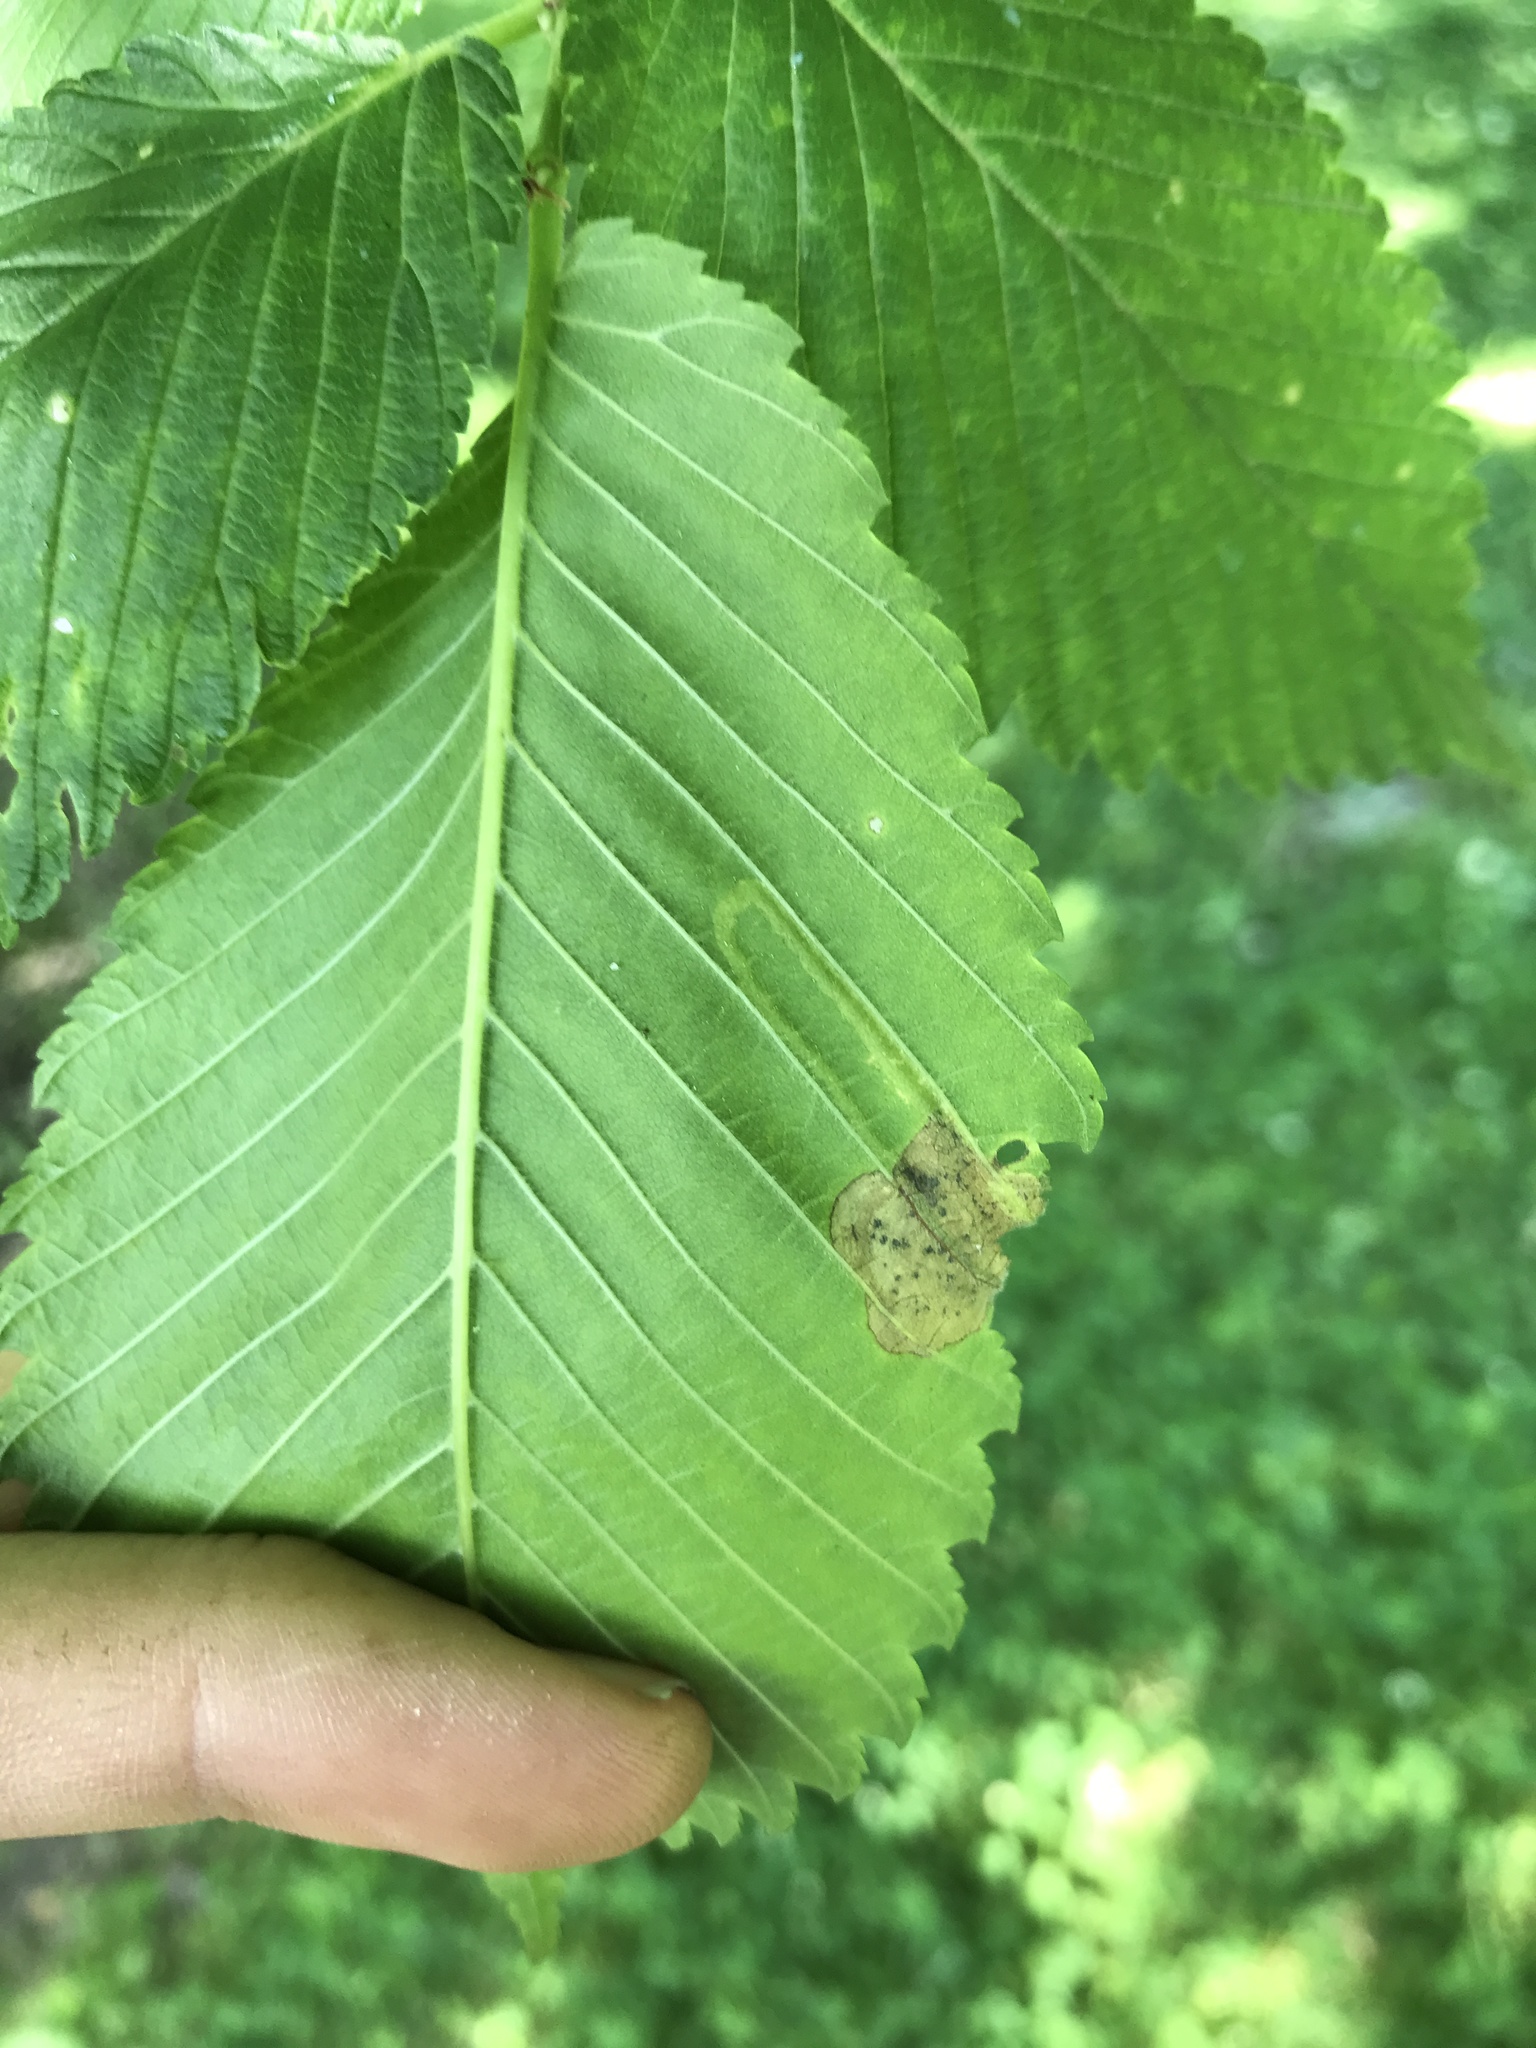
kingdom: Animalia
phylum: Arthropoda
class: Insecta
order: Diptera
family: Agromyzidae
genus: Agromyza
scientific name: Agromyza aristata
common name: Elm agromyzid leafminer
